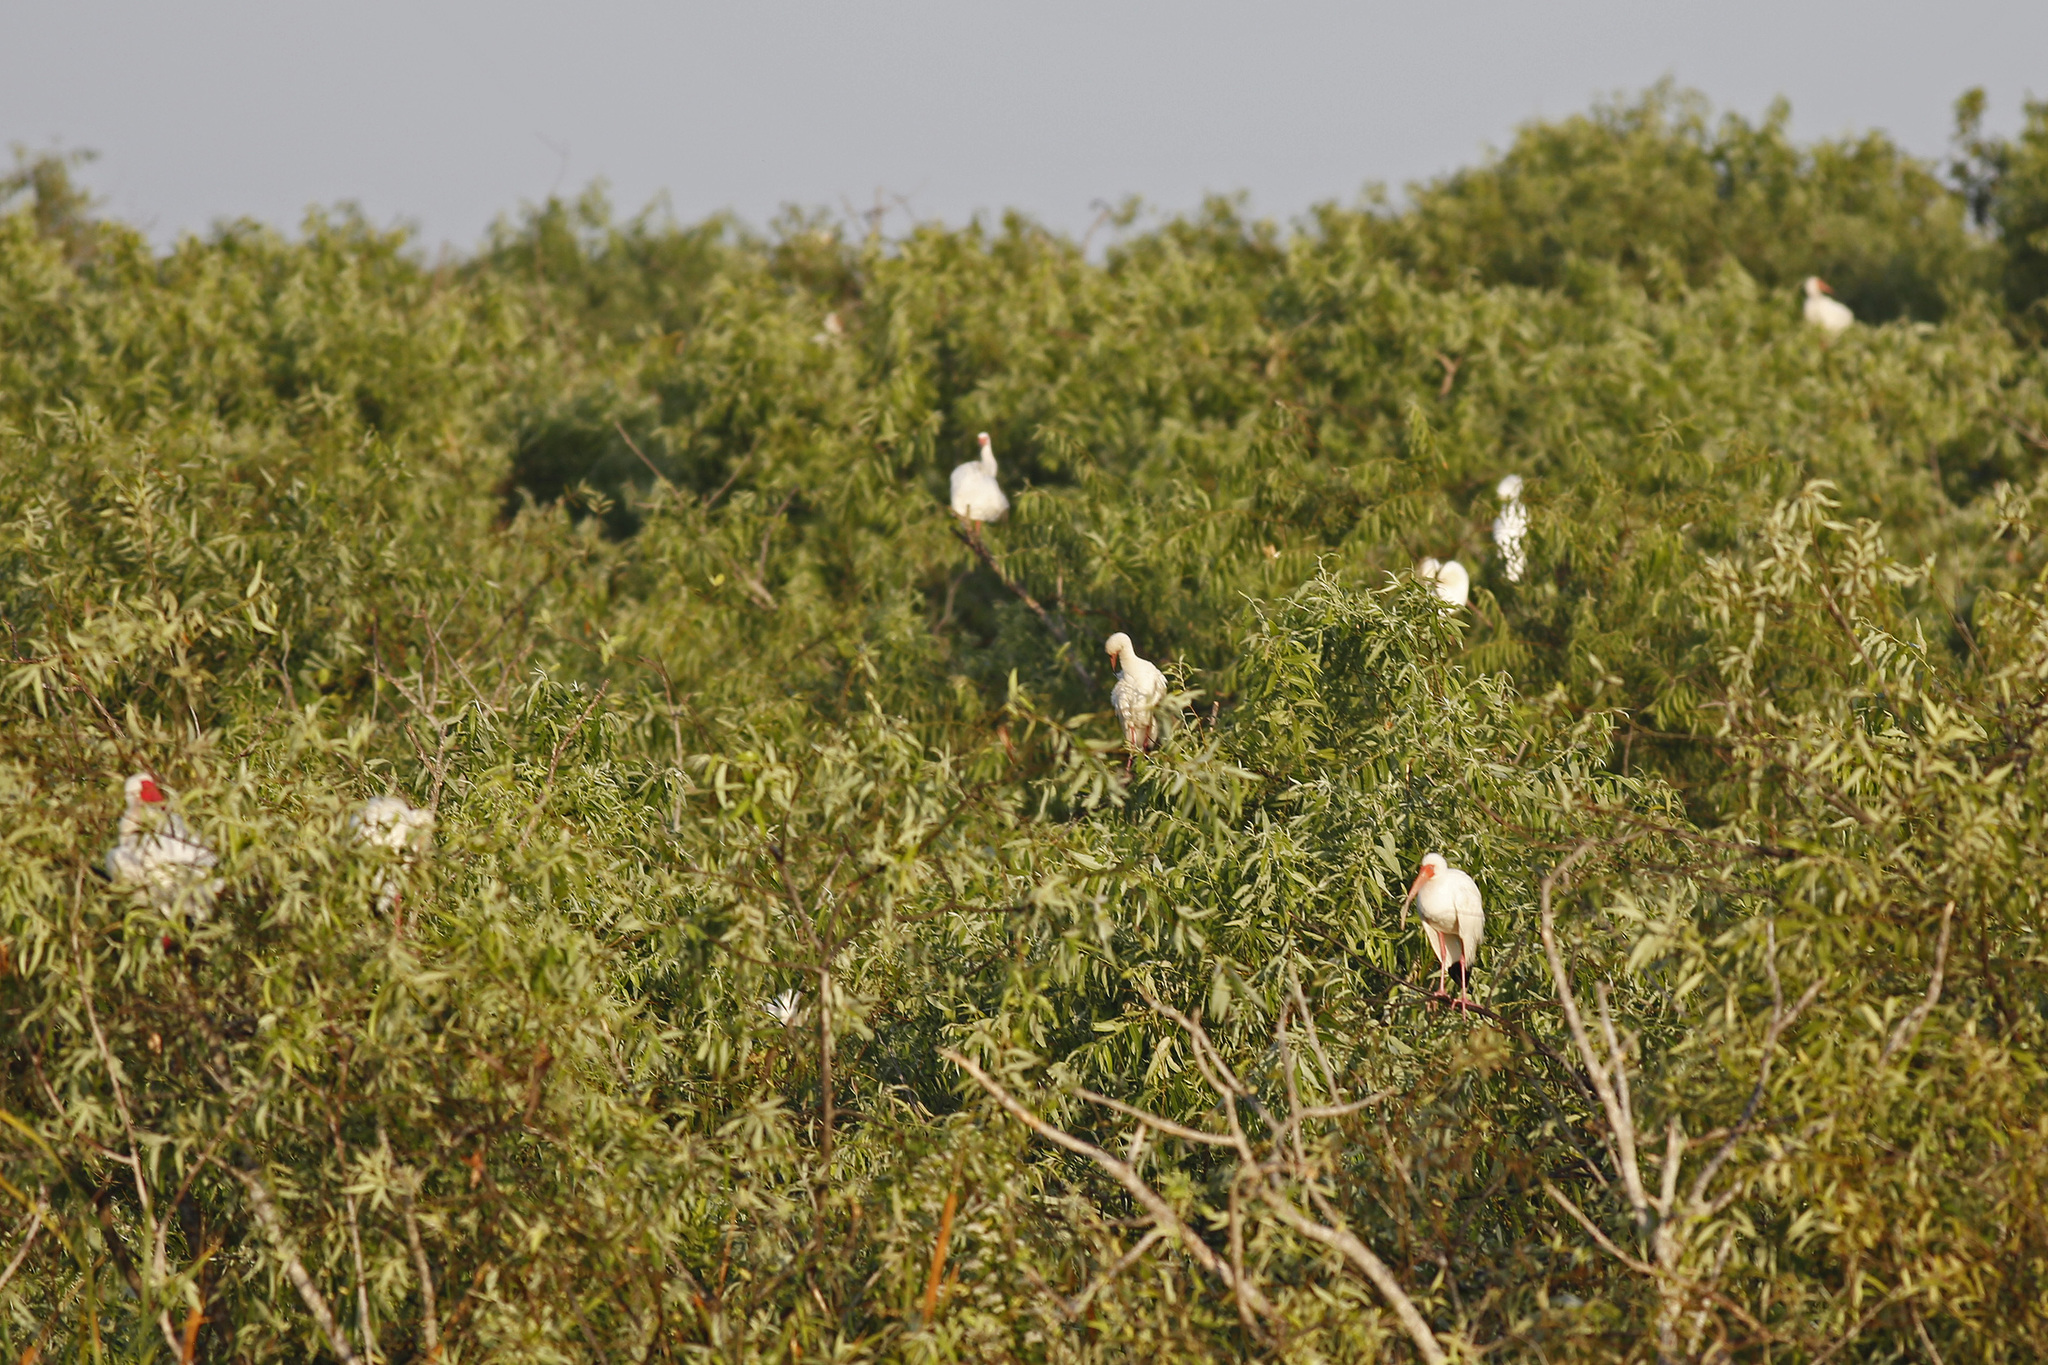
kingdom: Animalia
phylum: Chordata
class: Aves
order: Pelecaniformes
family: Threskiornithidae
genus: Eudocimus
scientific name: Eudocimus albus
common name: White ibis
